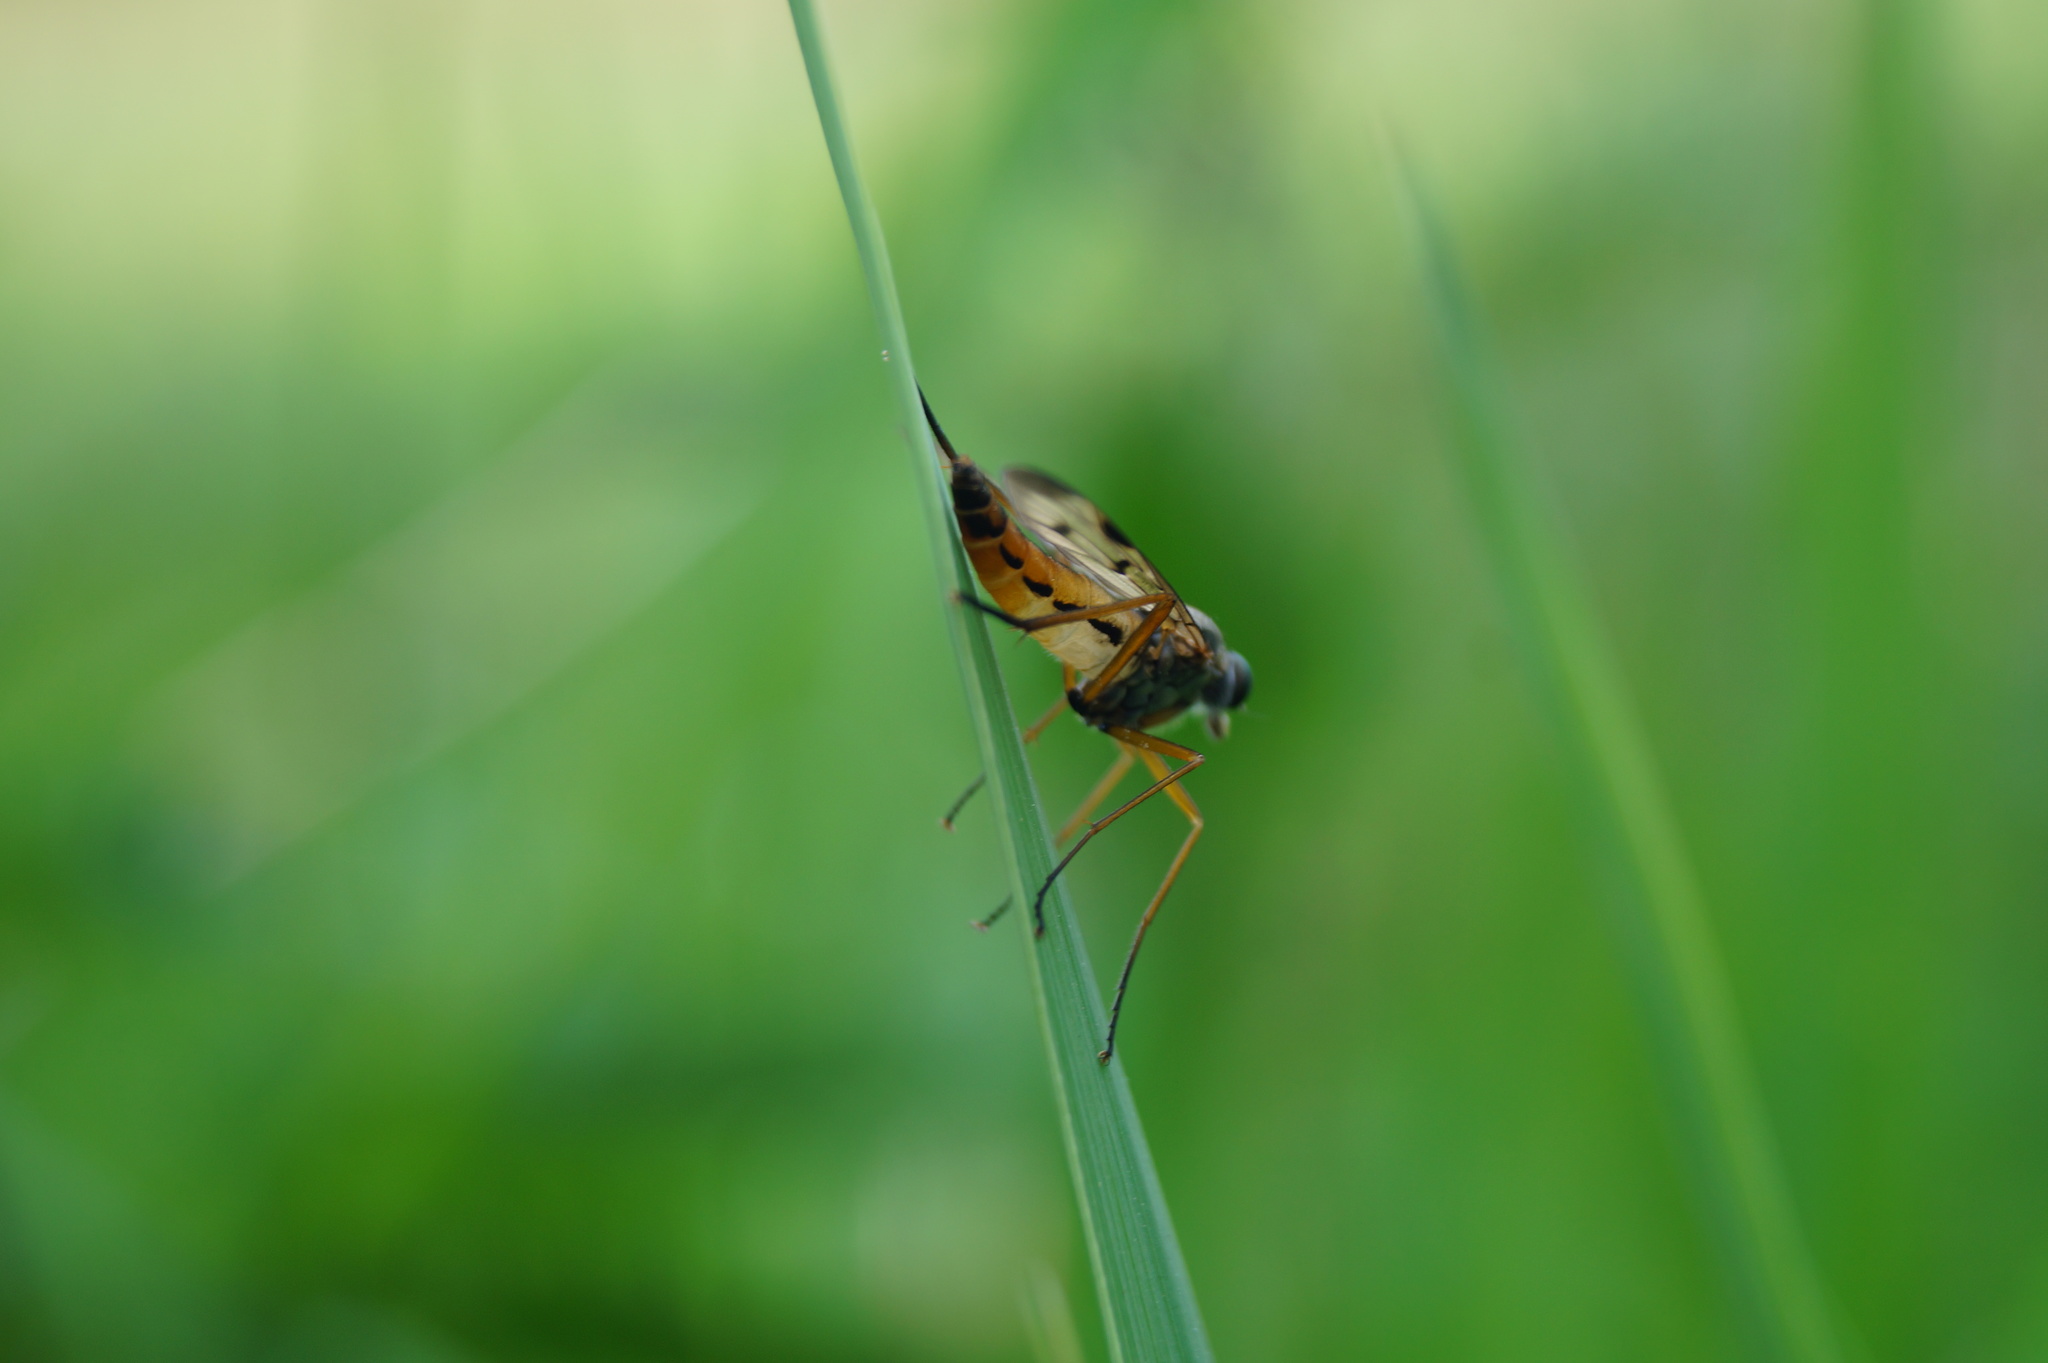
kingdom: Animalia
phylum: Arthropoda
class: Insecta
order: Diptera
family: Rhagionidae
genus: Rhagio
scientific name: Rhagio scolopacea
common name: Downlooker snipefly
